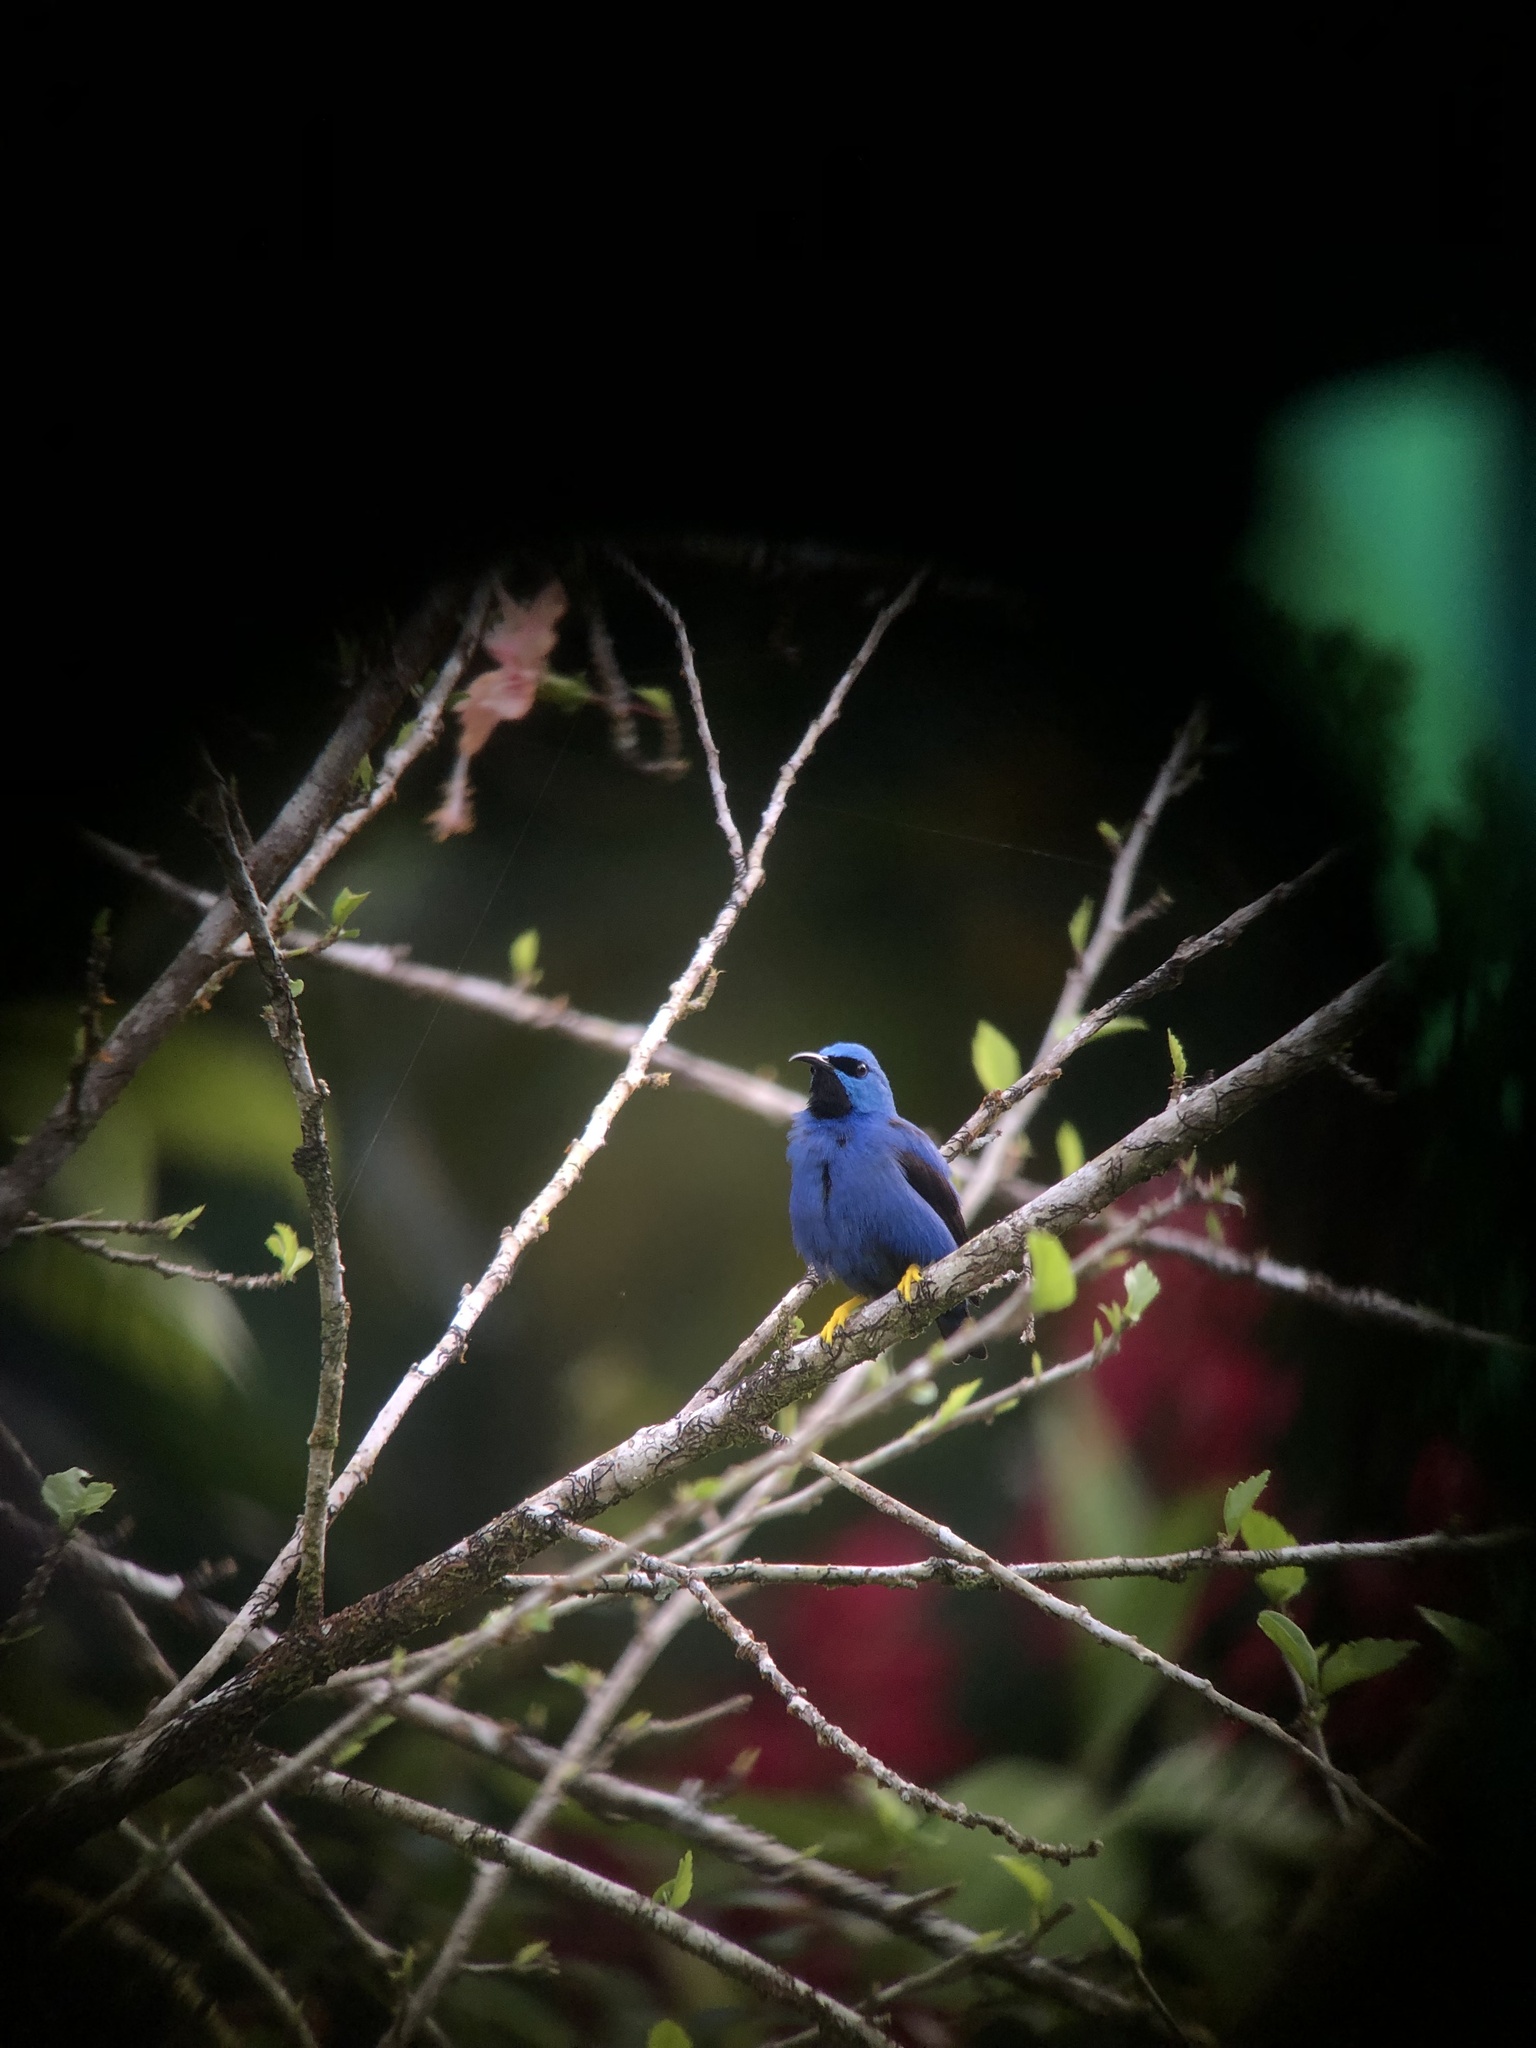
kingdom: Animalia
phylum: Chordata
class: Aves
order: Passeriformes
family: Thraupidae
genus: Cyanerpes
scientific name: Cyanerpes lucidus
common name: Shining honeycreeper
